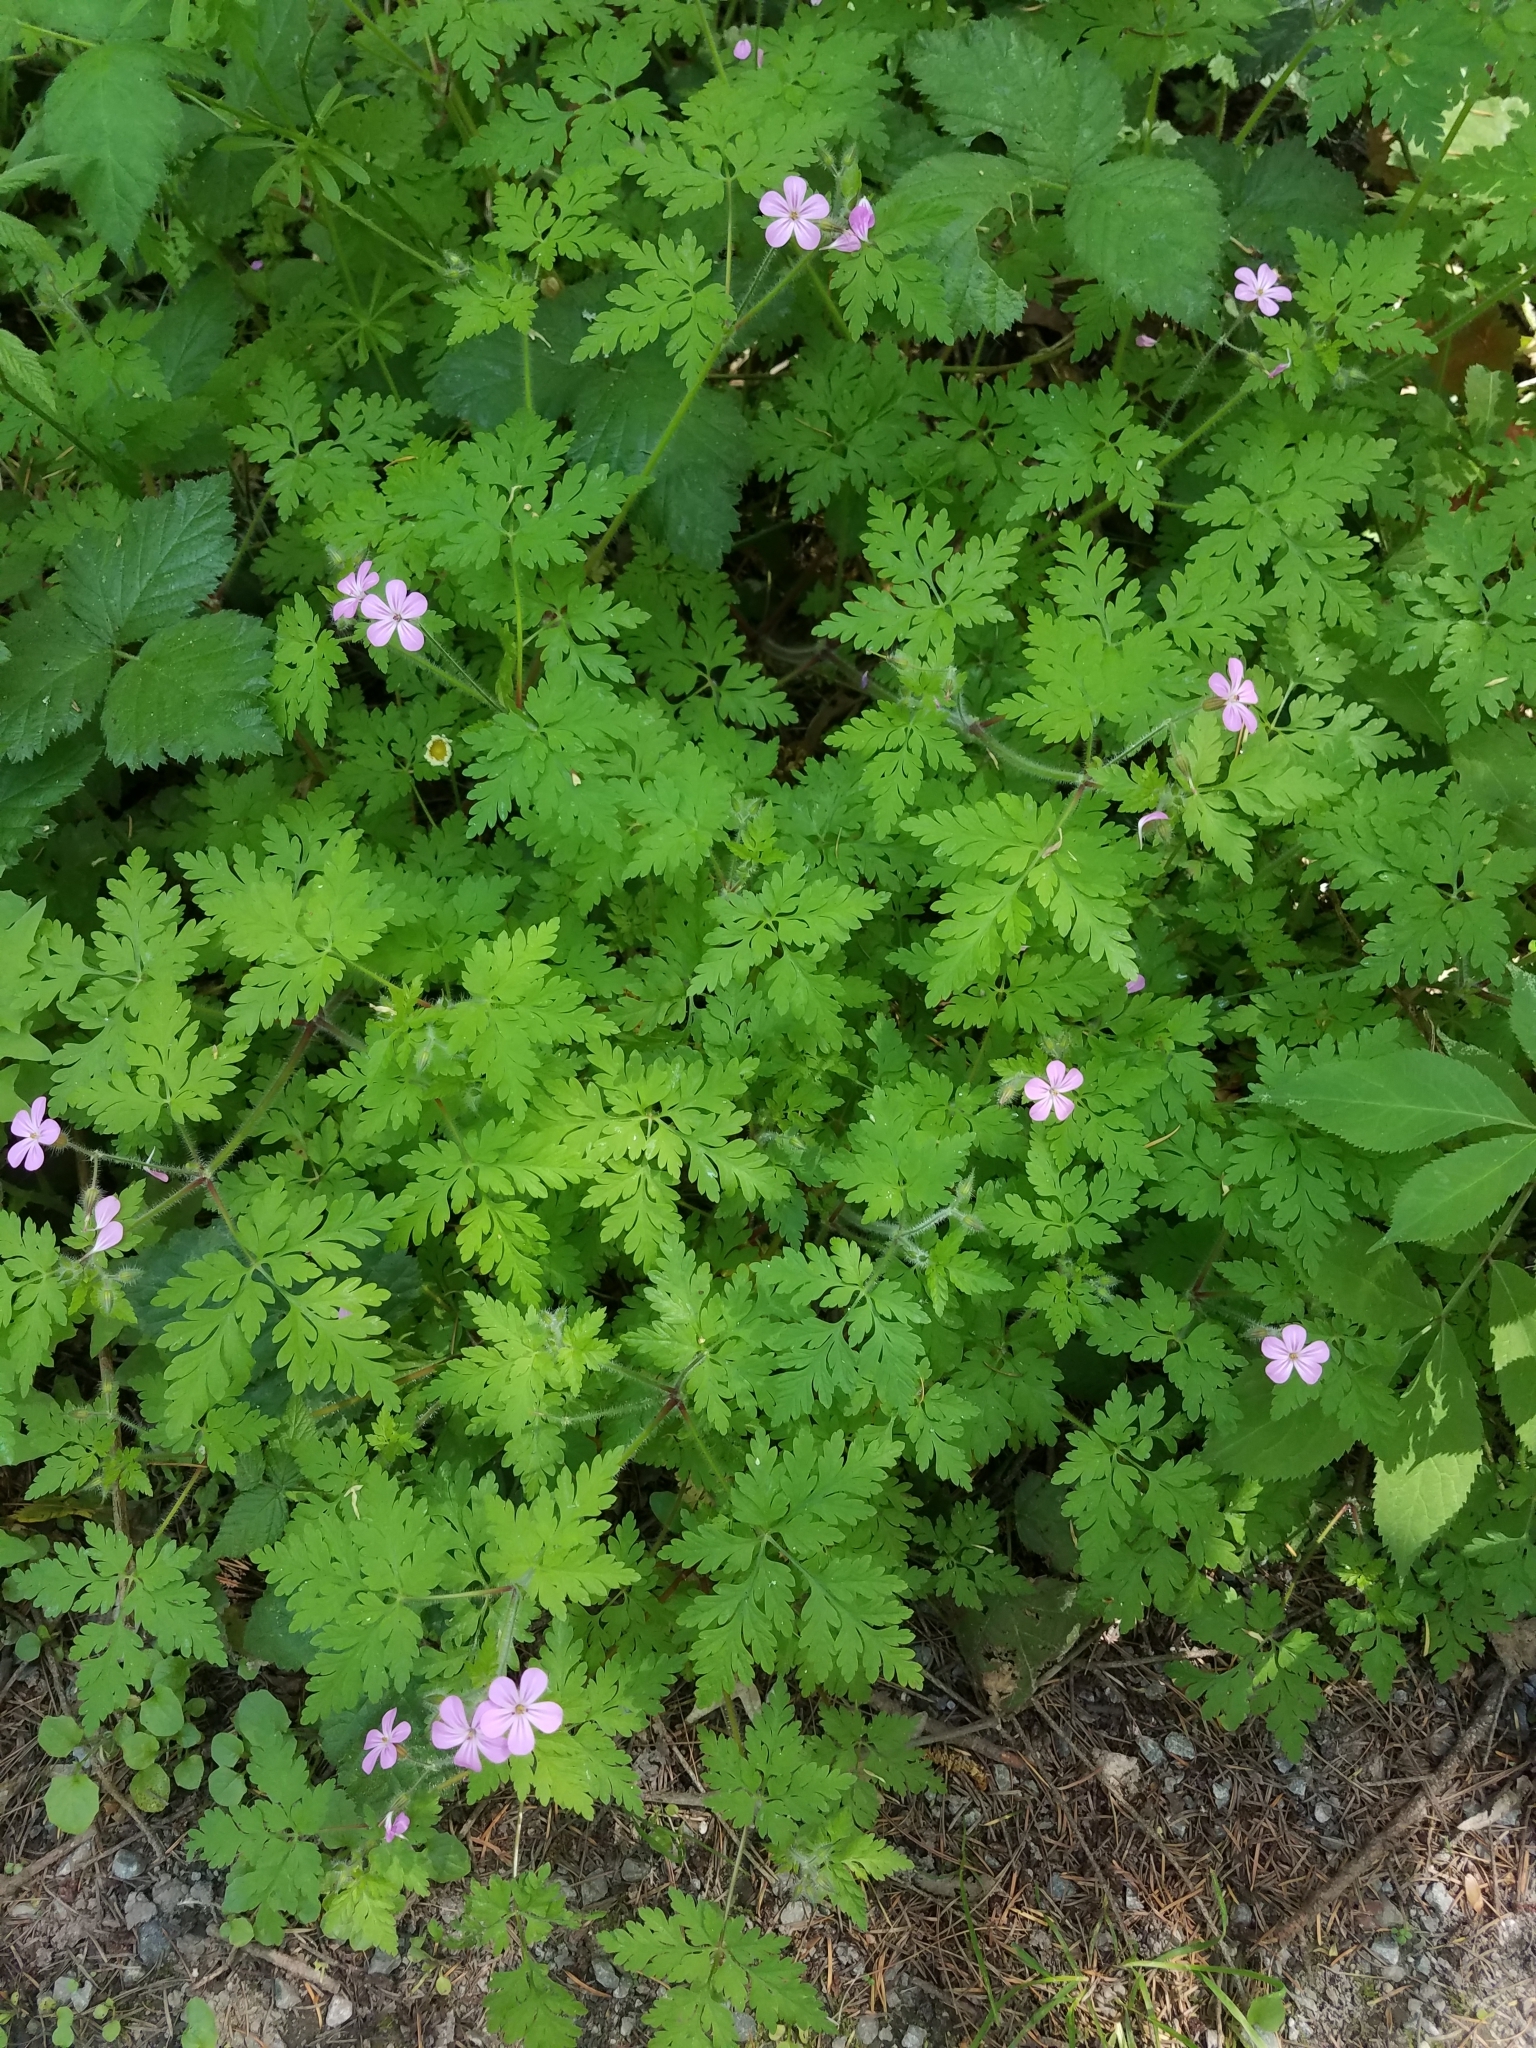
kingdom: Plantae
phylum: Tracheophyta
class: Magnoliopsida
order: Geraniales
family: Geraniaceae
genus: Geranium
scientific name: Geranium robertianum
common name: Herb-robert
